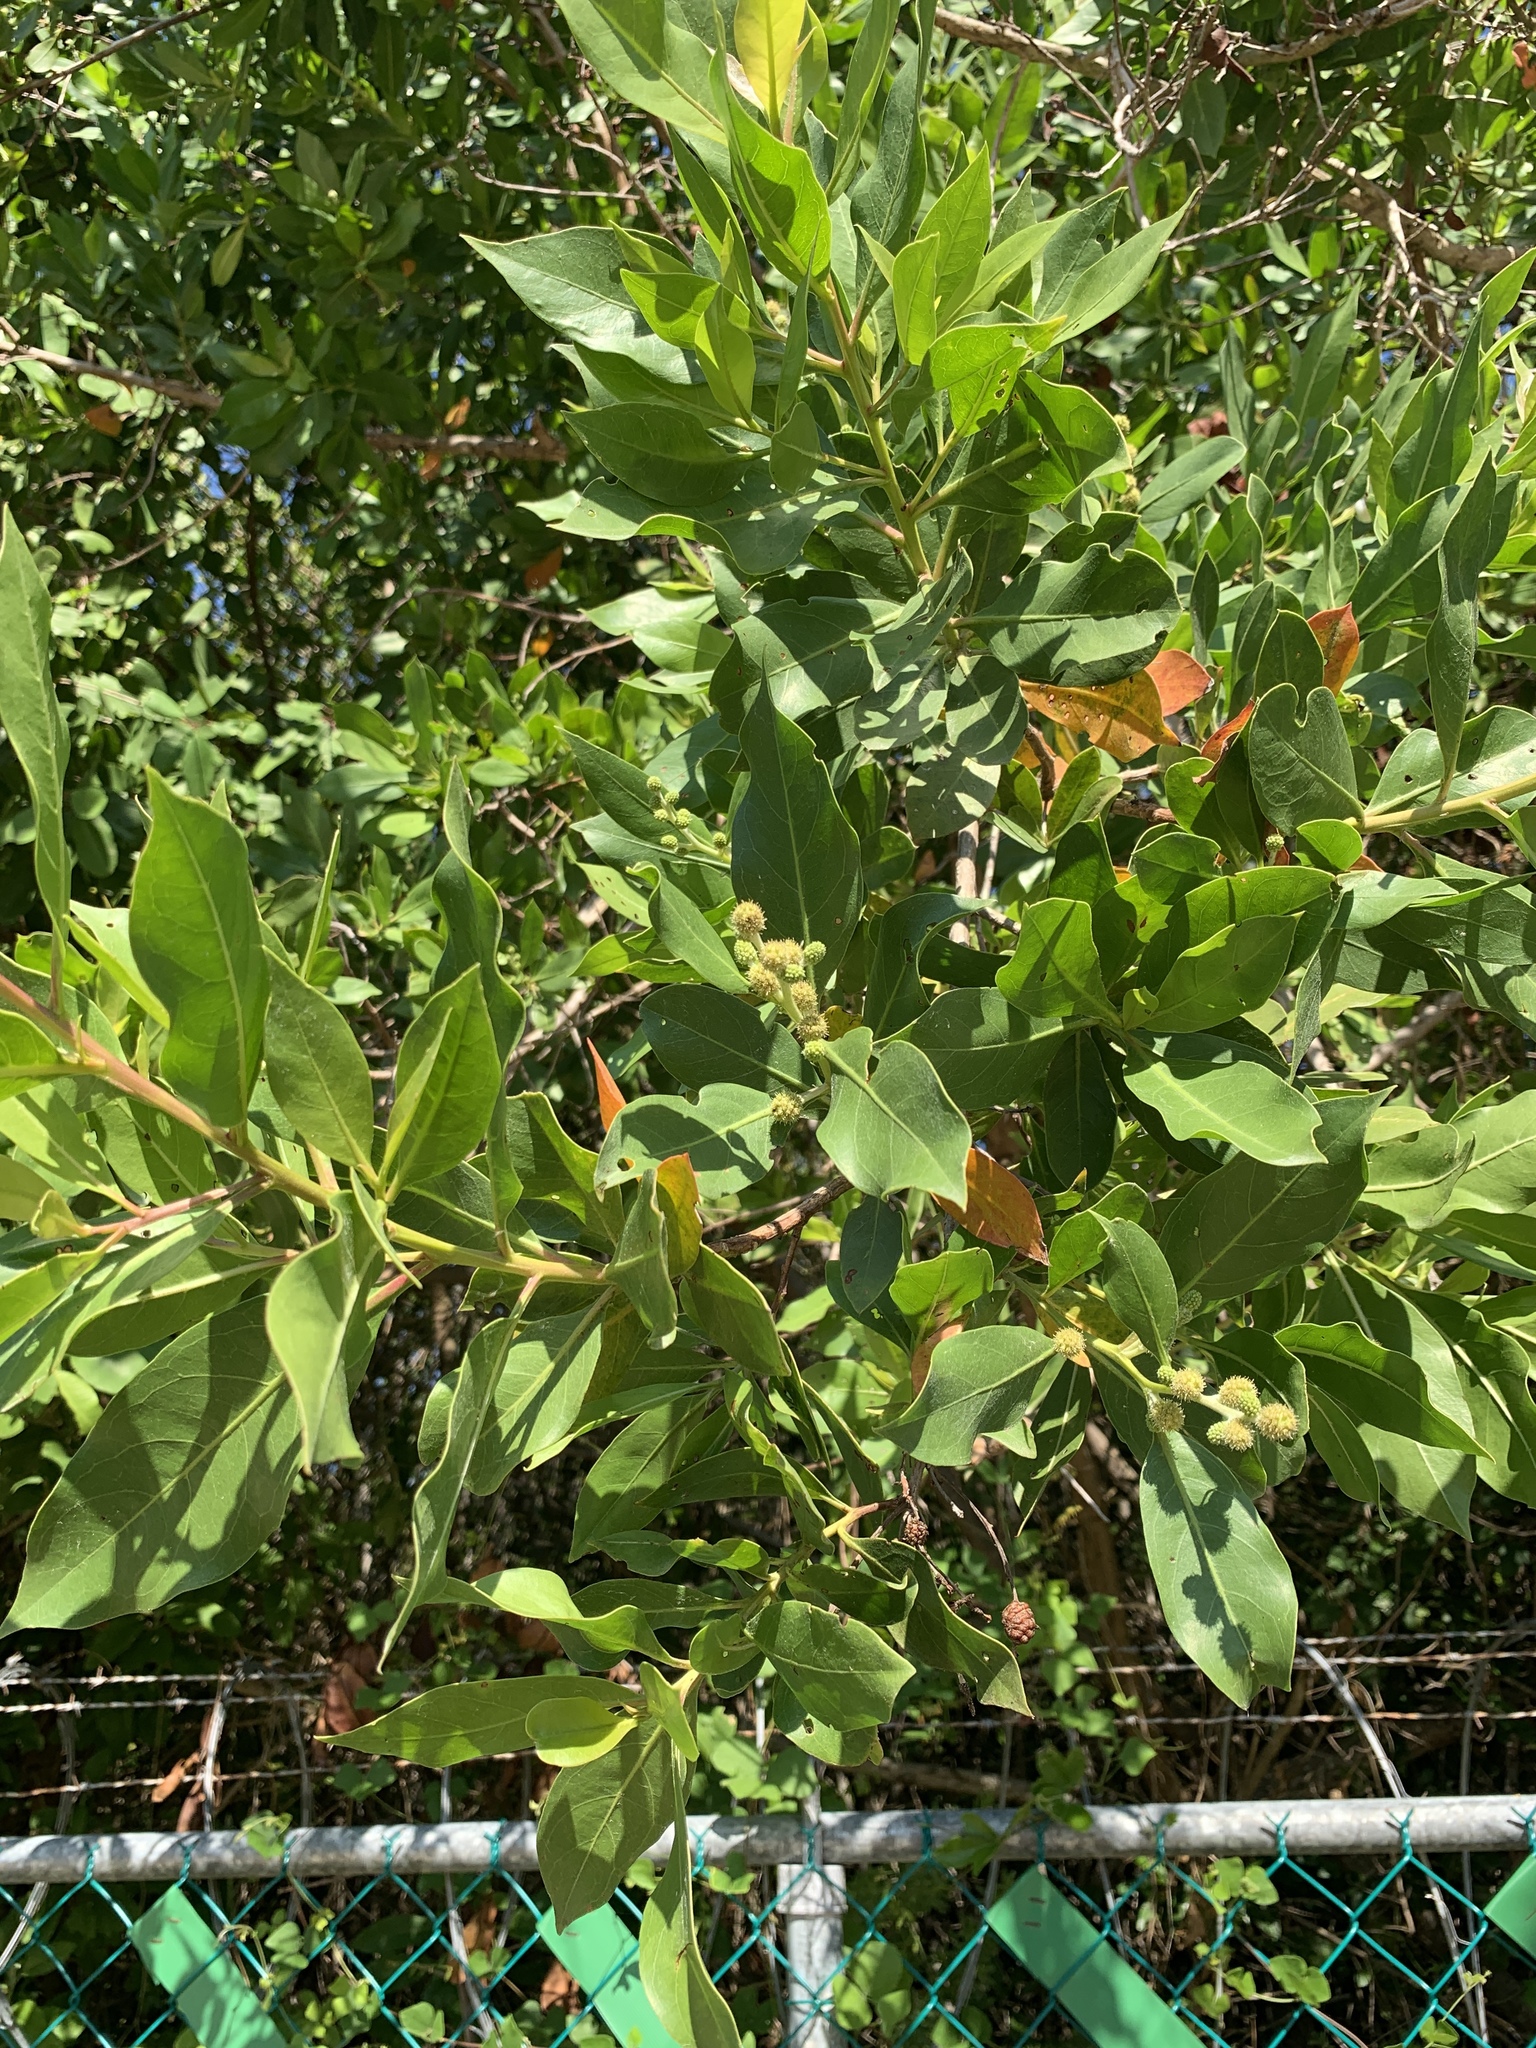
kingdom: Plantae
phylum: Tracheophyta
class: Magnoliopsida
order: Myrtales
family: Combretaceae
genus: Conocarpus
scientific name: Conocarpus erectus
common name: Button mangrove
